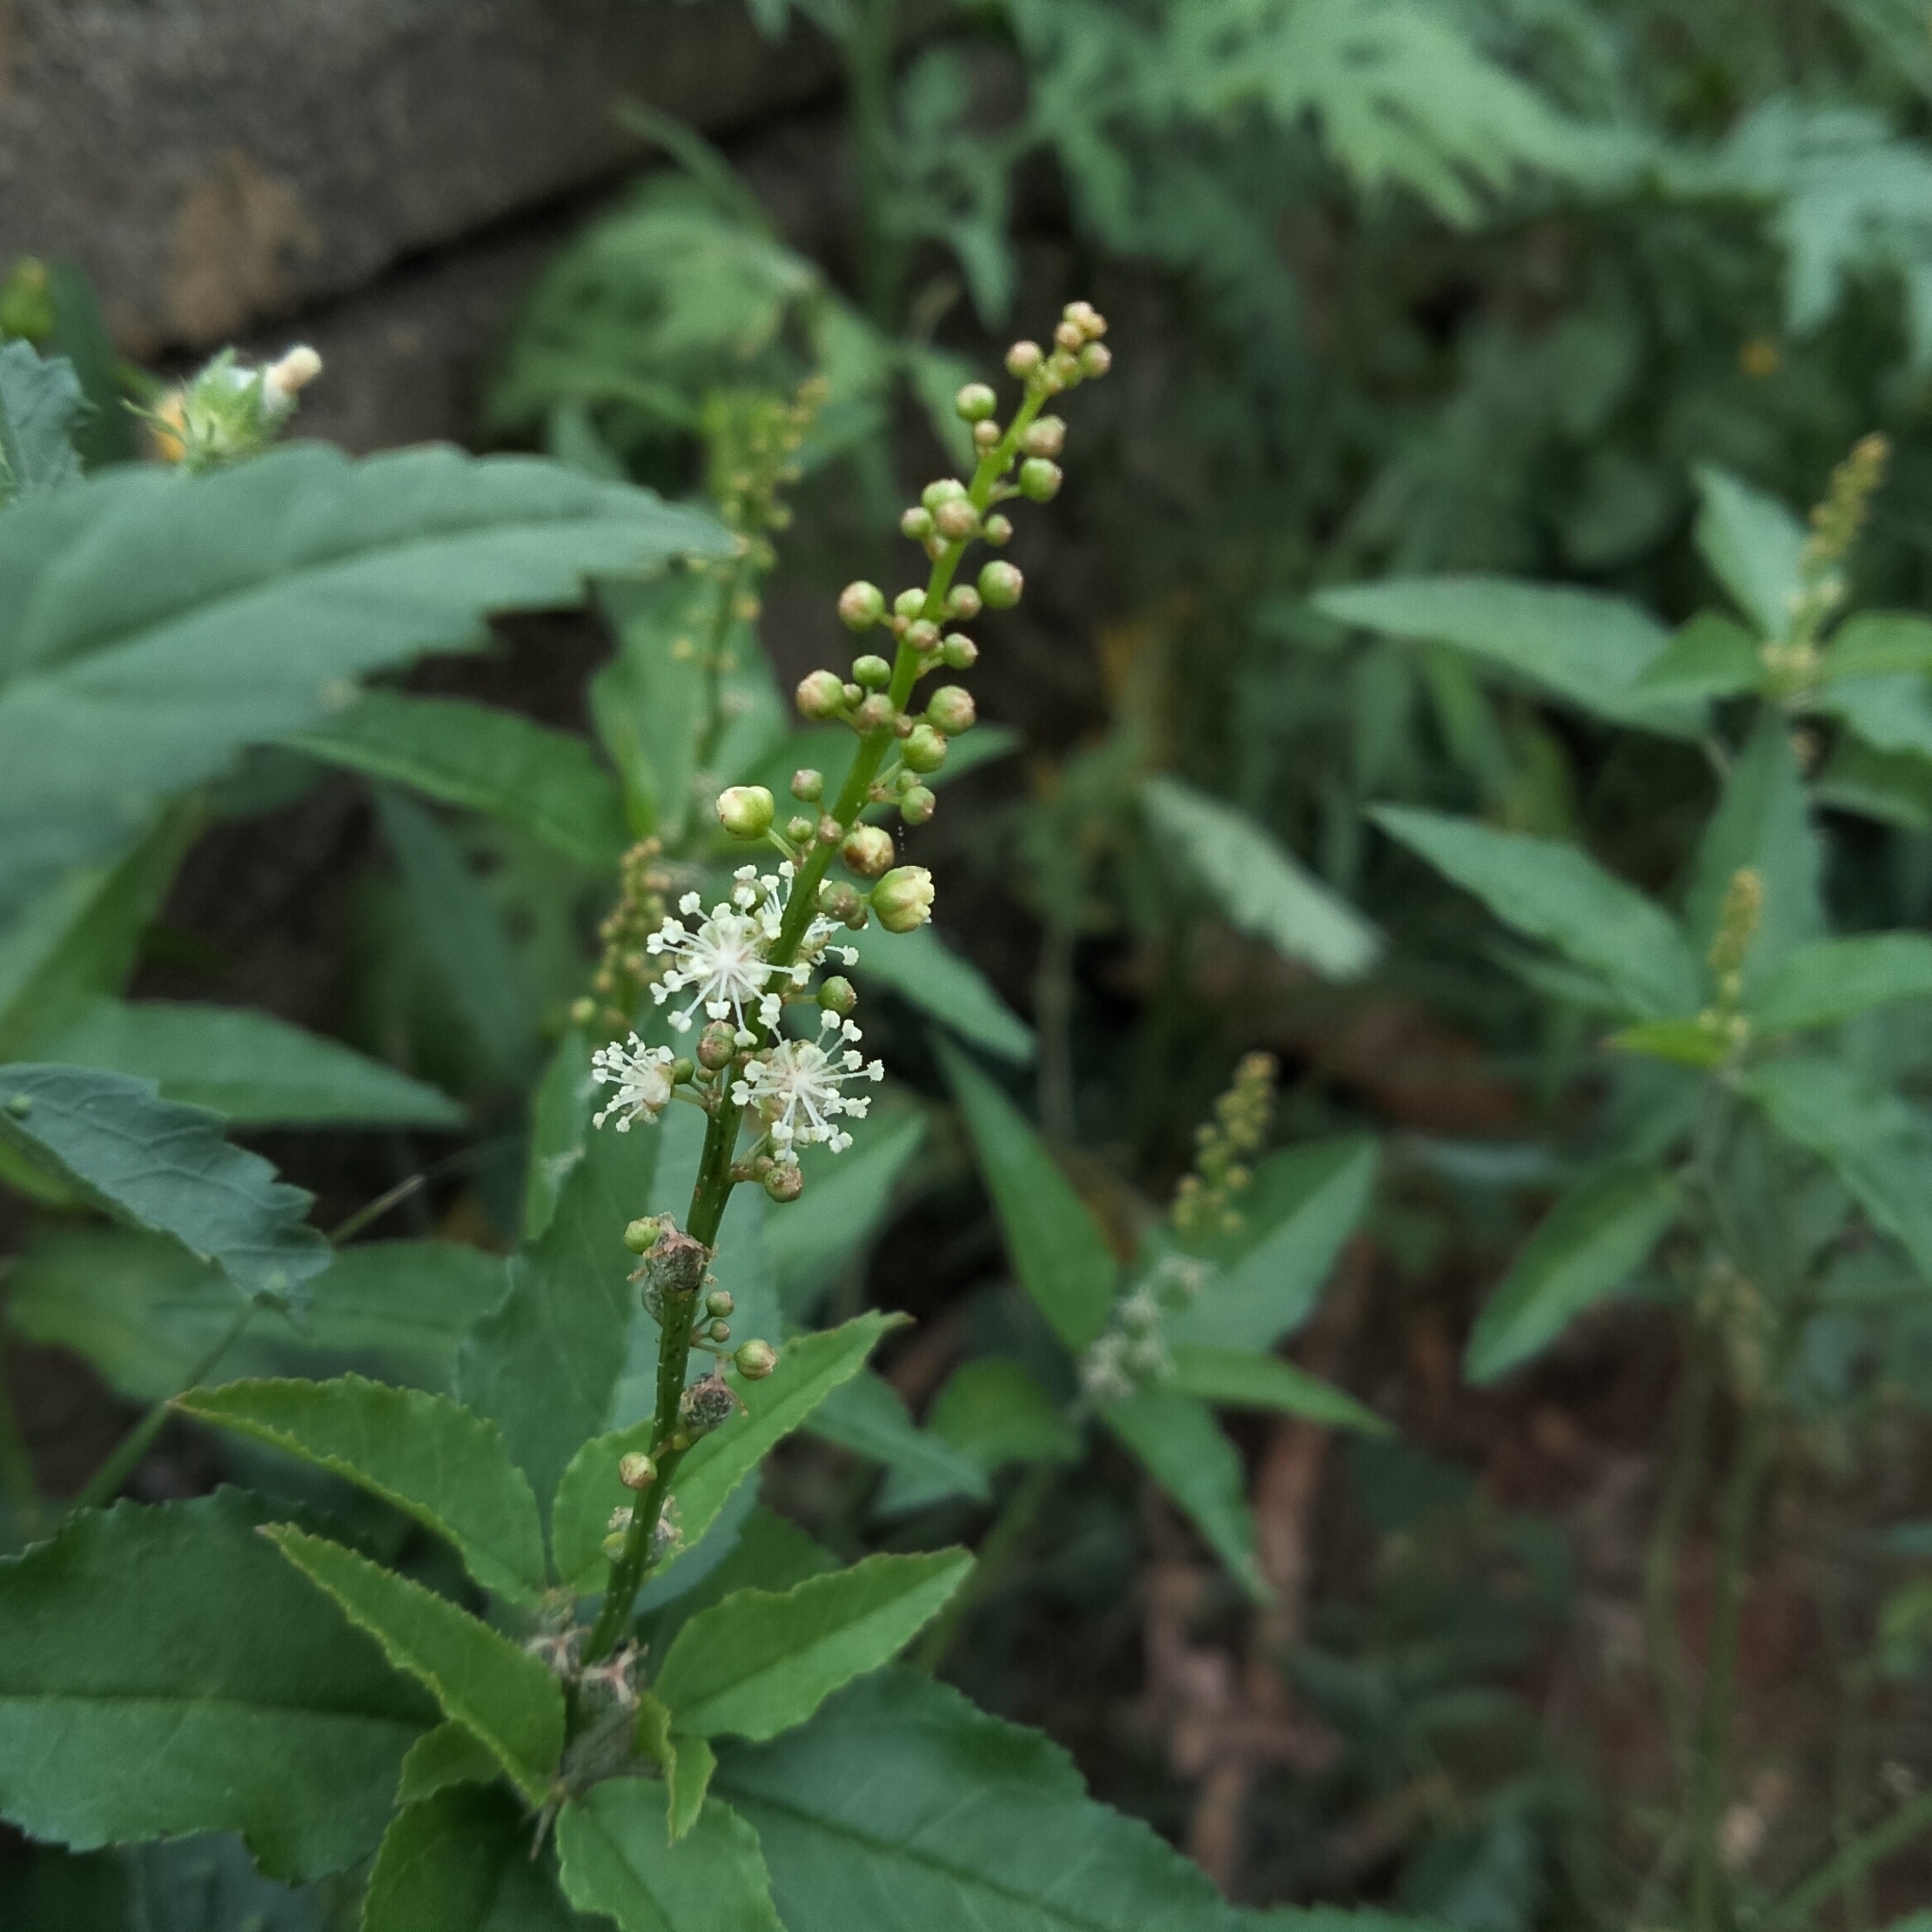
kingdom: Plantae
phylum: Tracheophyta
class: Magnoliopsida
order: Malpighiales
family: Euphorbiaceae
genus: Croton
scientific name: Croton bonplandianus
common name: Bonpland's croton
